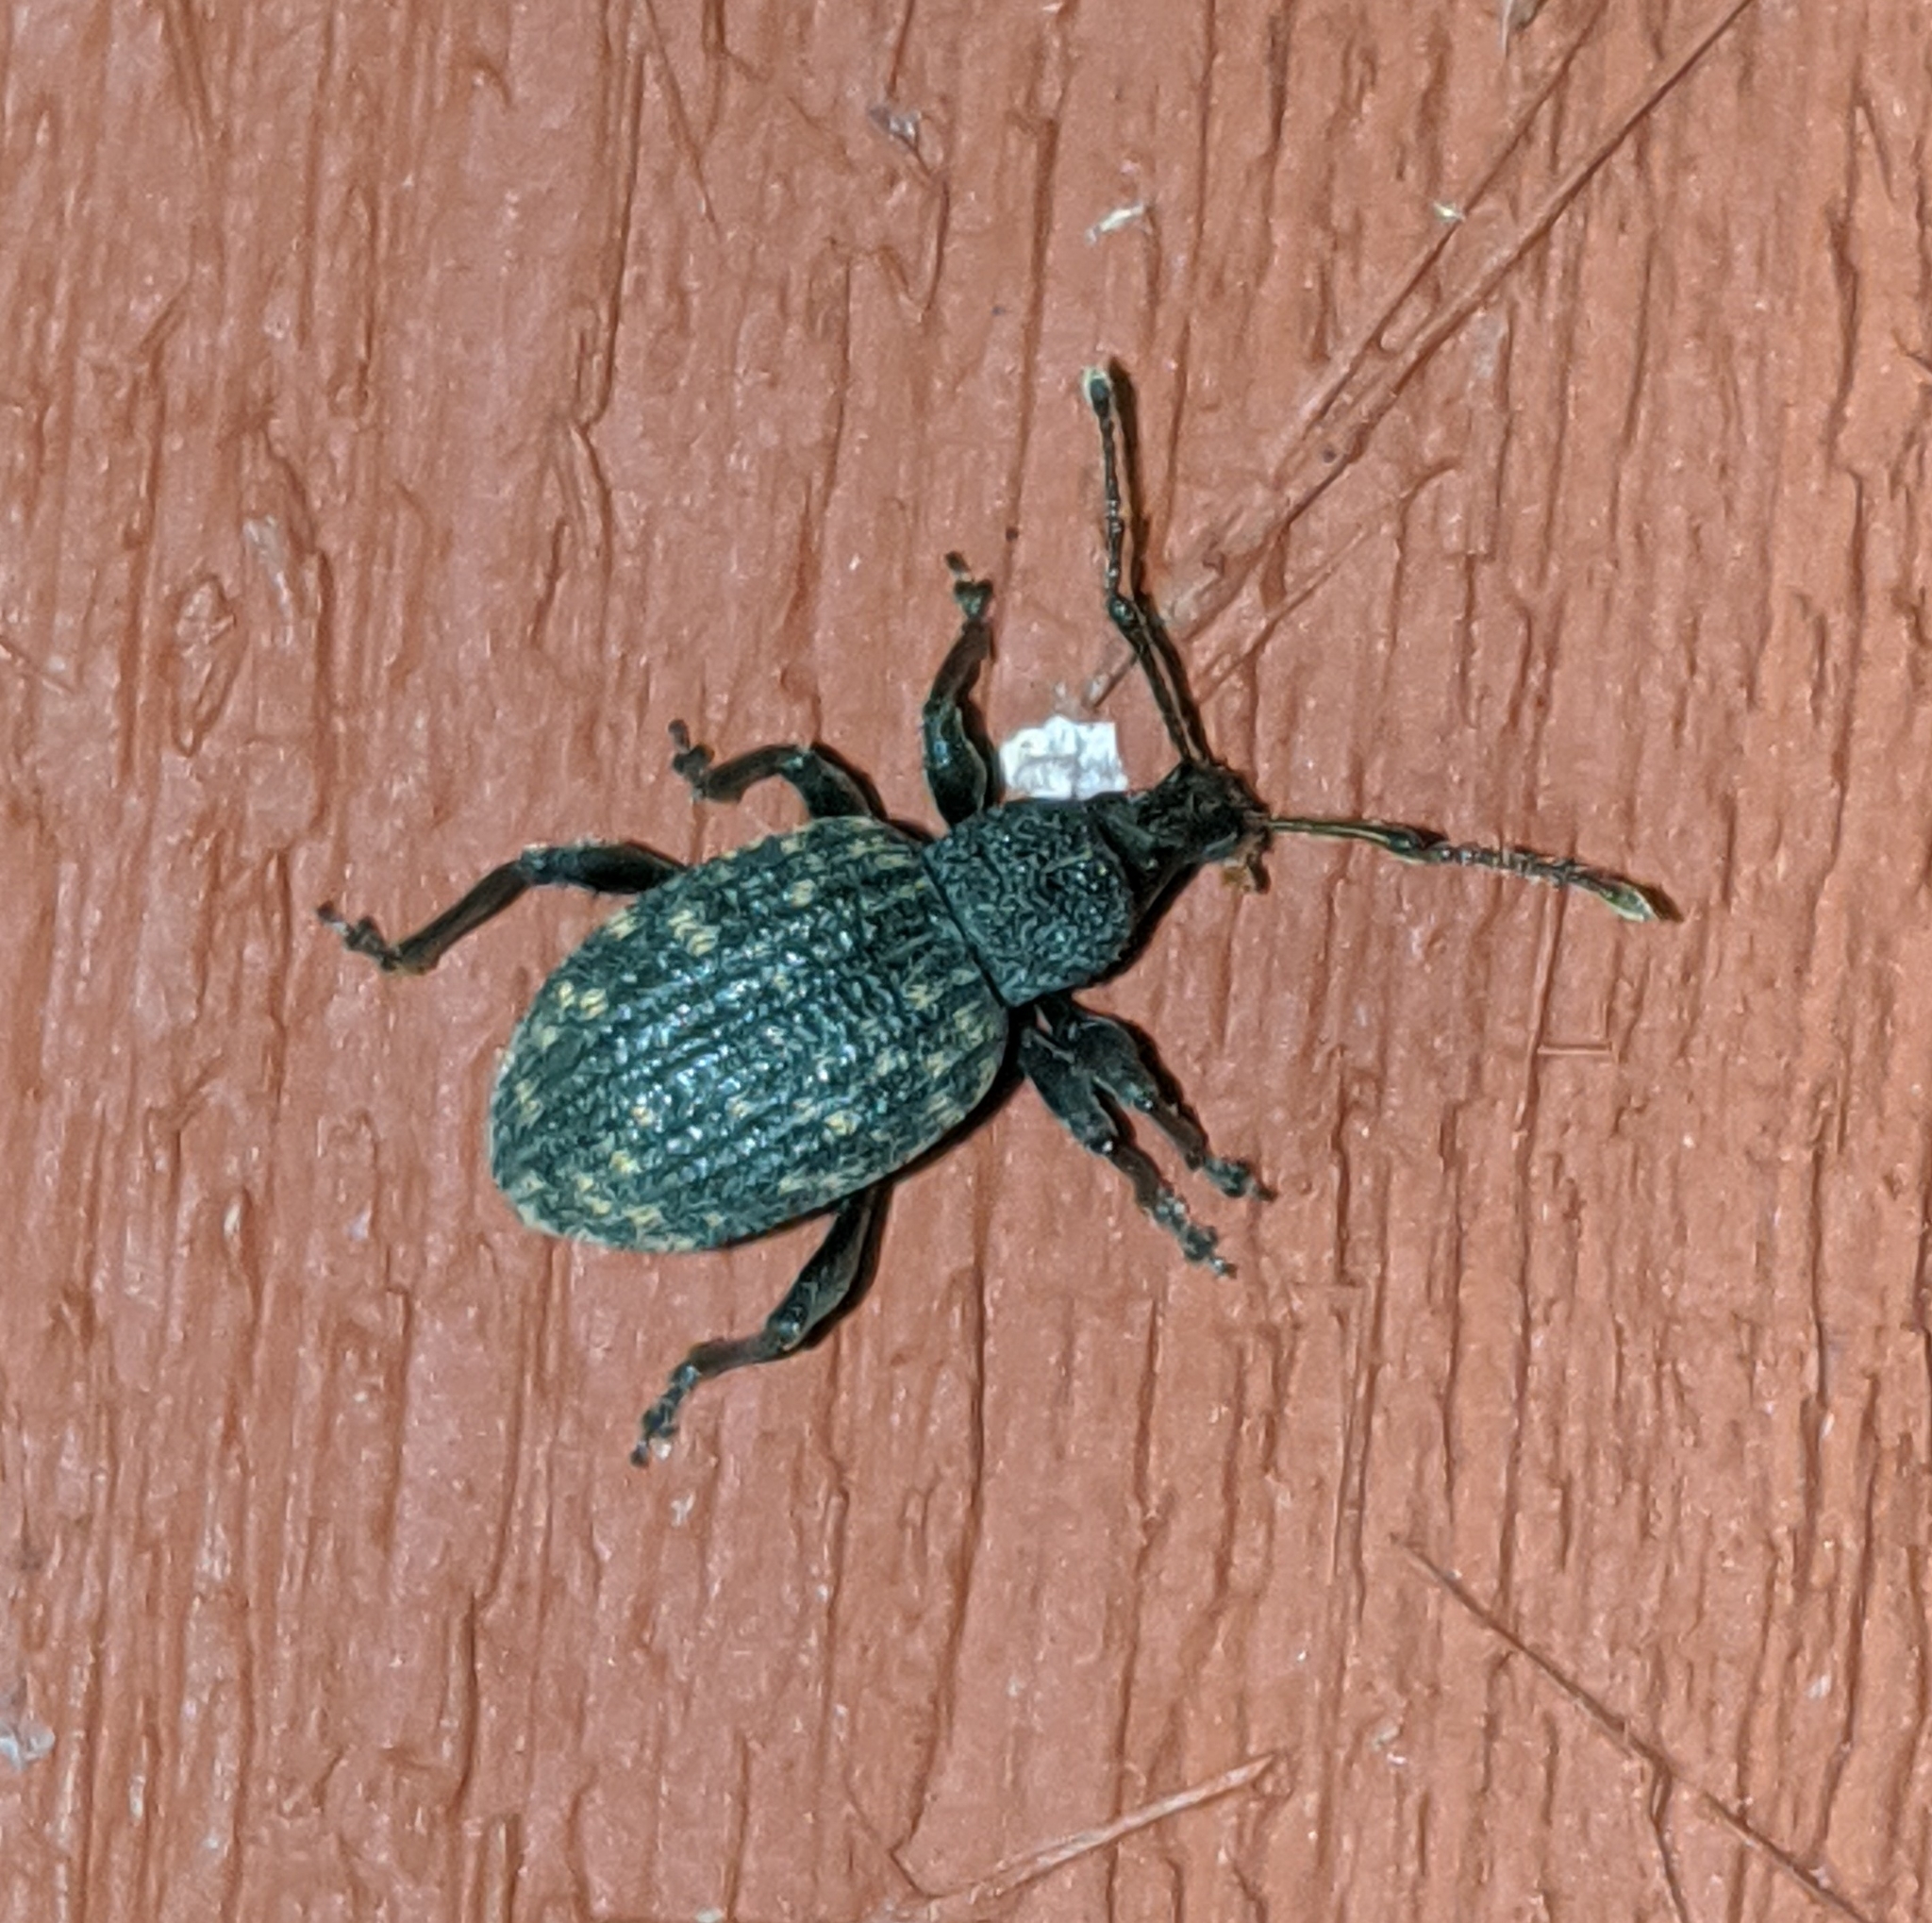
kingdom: Animalia
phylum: Arthropoda
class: Insecta
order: Coleoptera
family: Curculionidae
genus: Otiorhynchus
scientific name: Otiorhynchus sulcatus
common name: Black vine weevil
